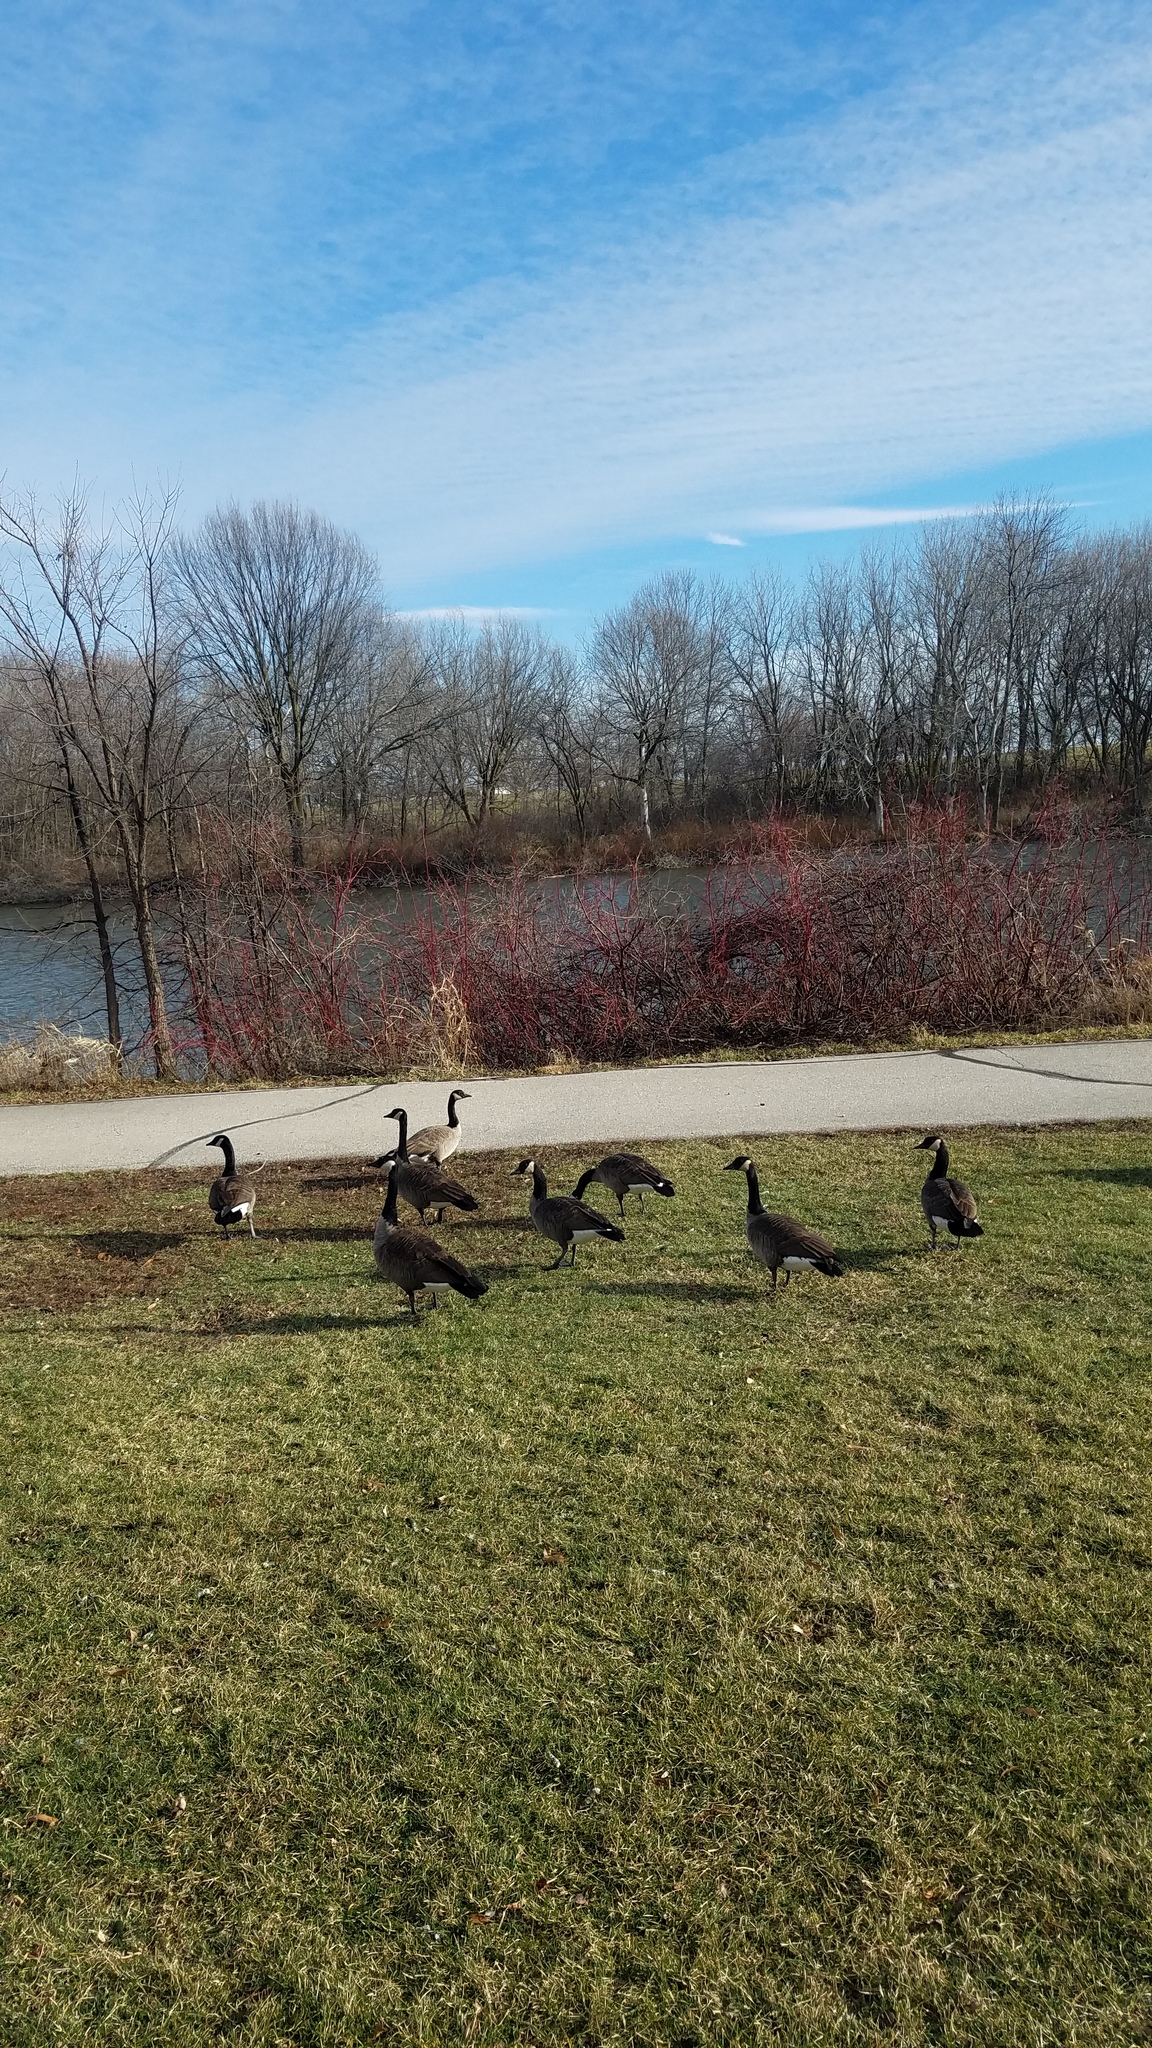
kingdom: Animalia
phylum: Chordata
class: Aves
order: Anseriformes
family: Anatidae
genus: Branta
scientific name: Branta canadensis
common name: Canada goose
